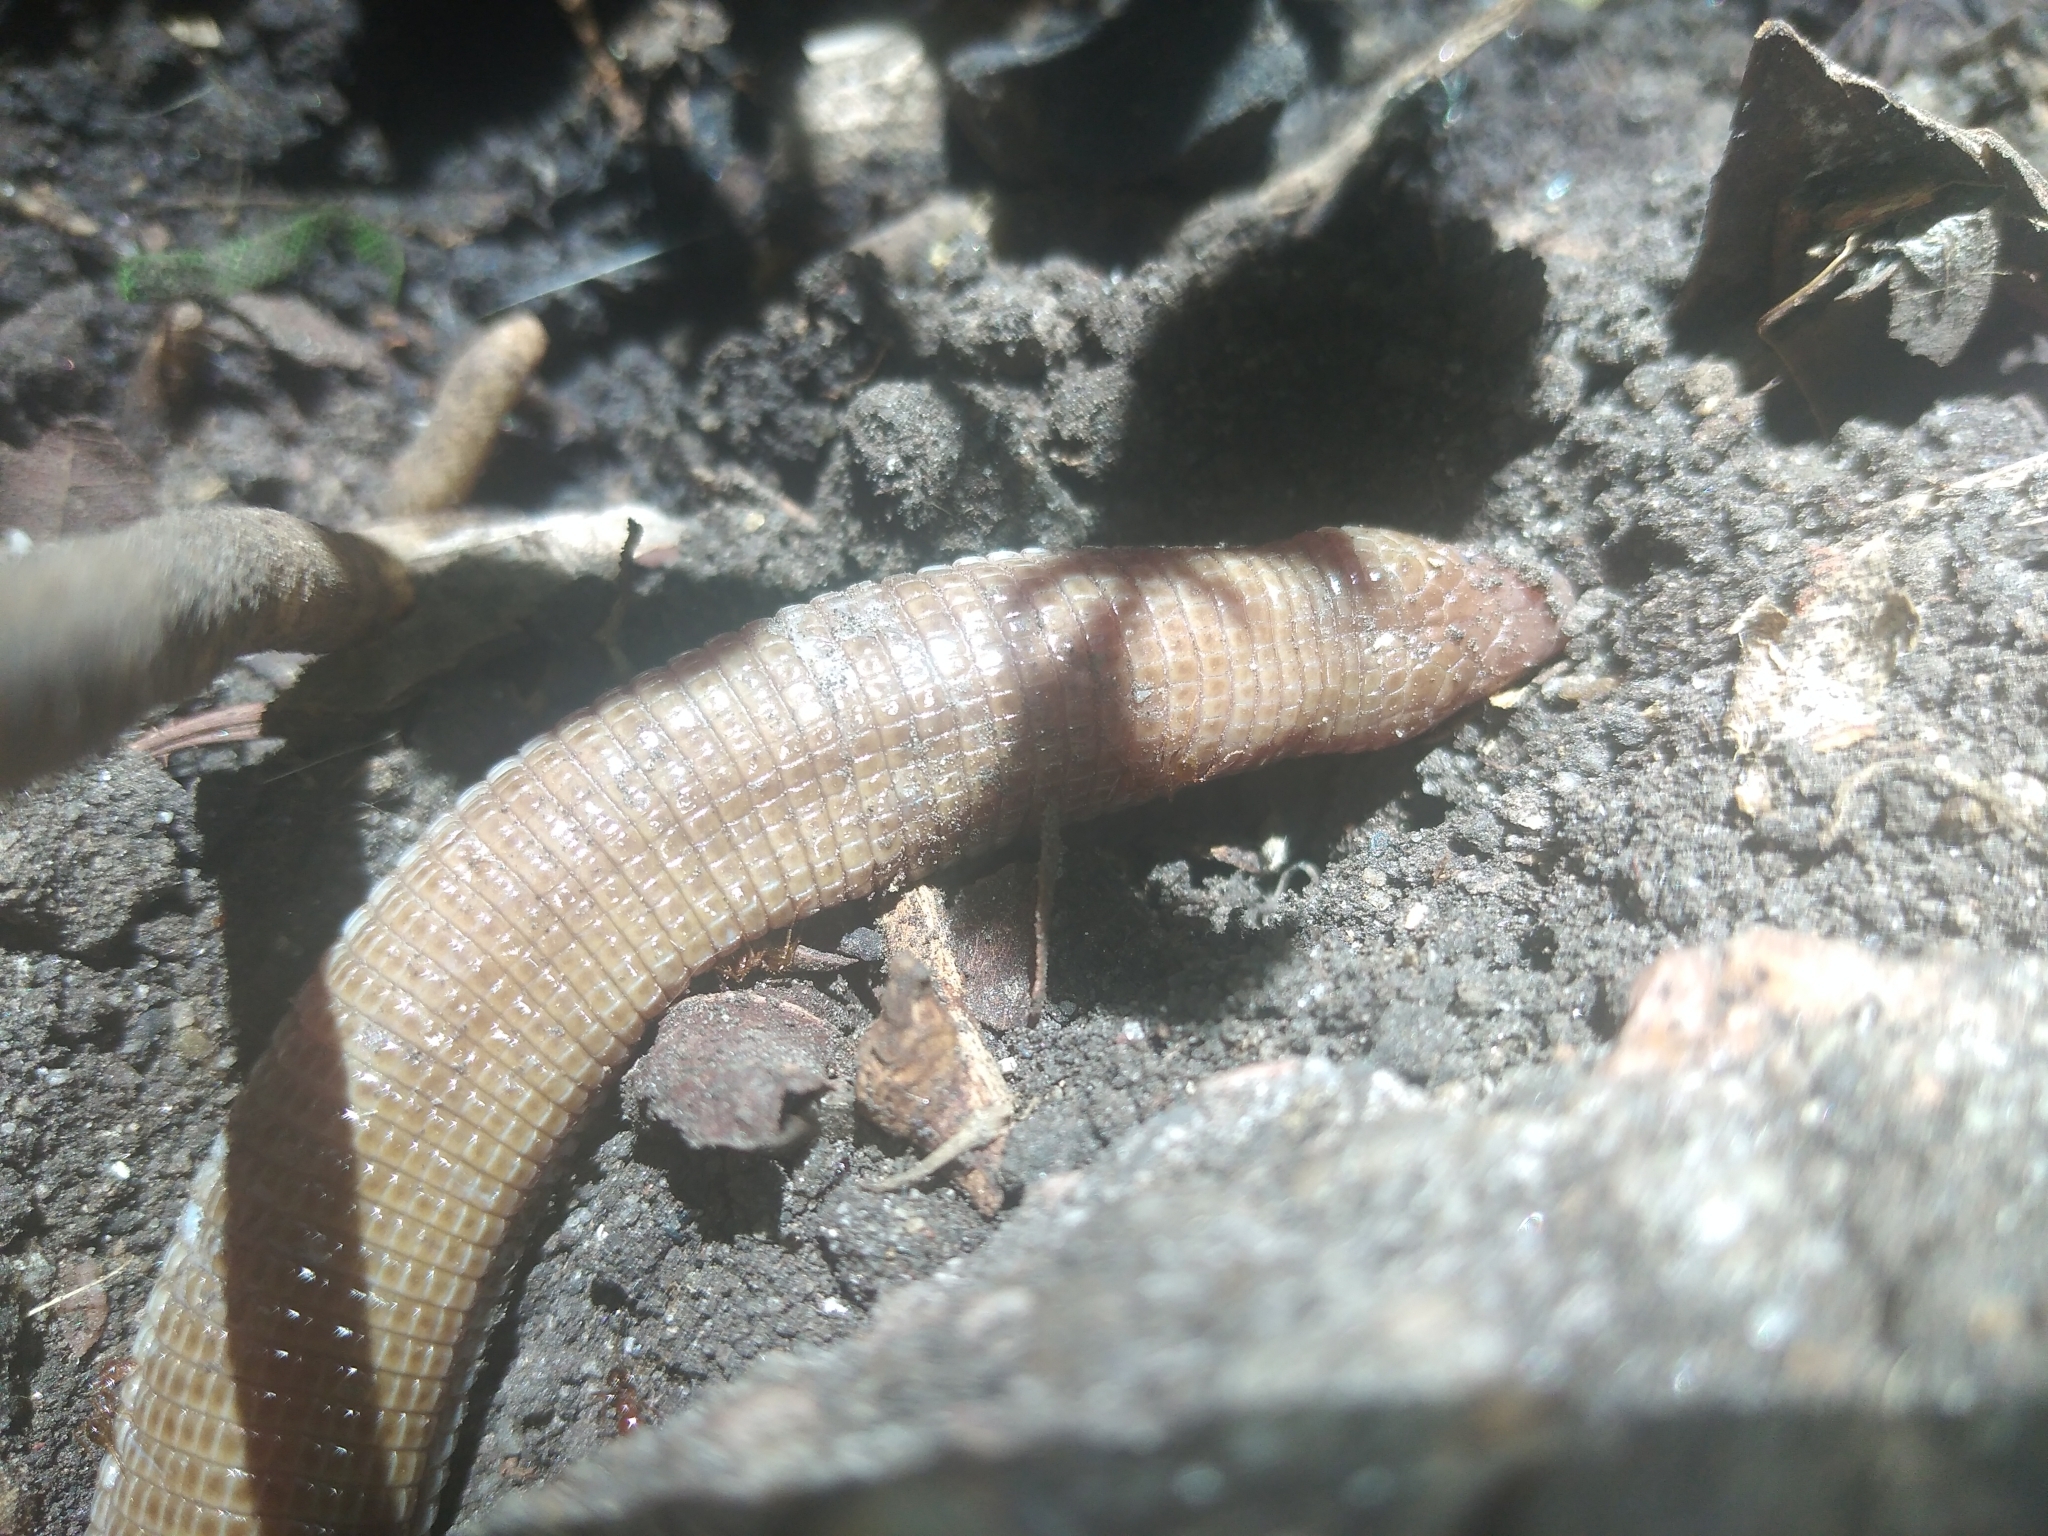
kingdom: Animalia
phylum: Chordata
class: Squamata
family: Amphisbaenidae
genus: Amphisbaena
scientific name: Amphisbaena darwinii
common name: Darwin's ringed worm lizard
